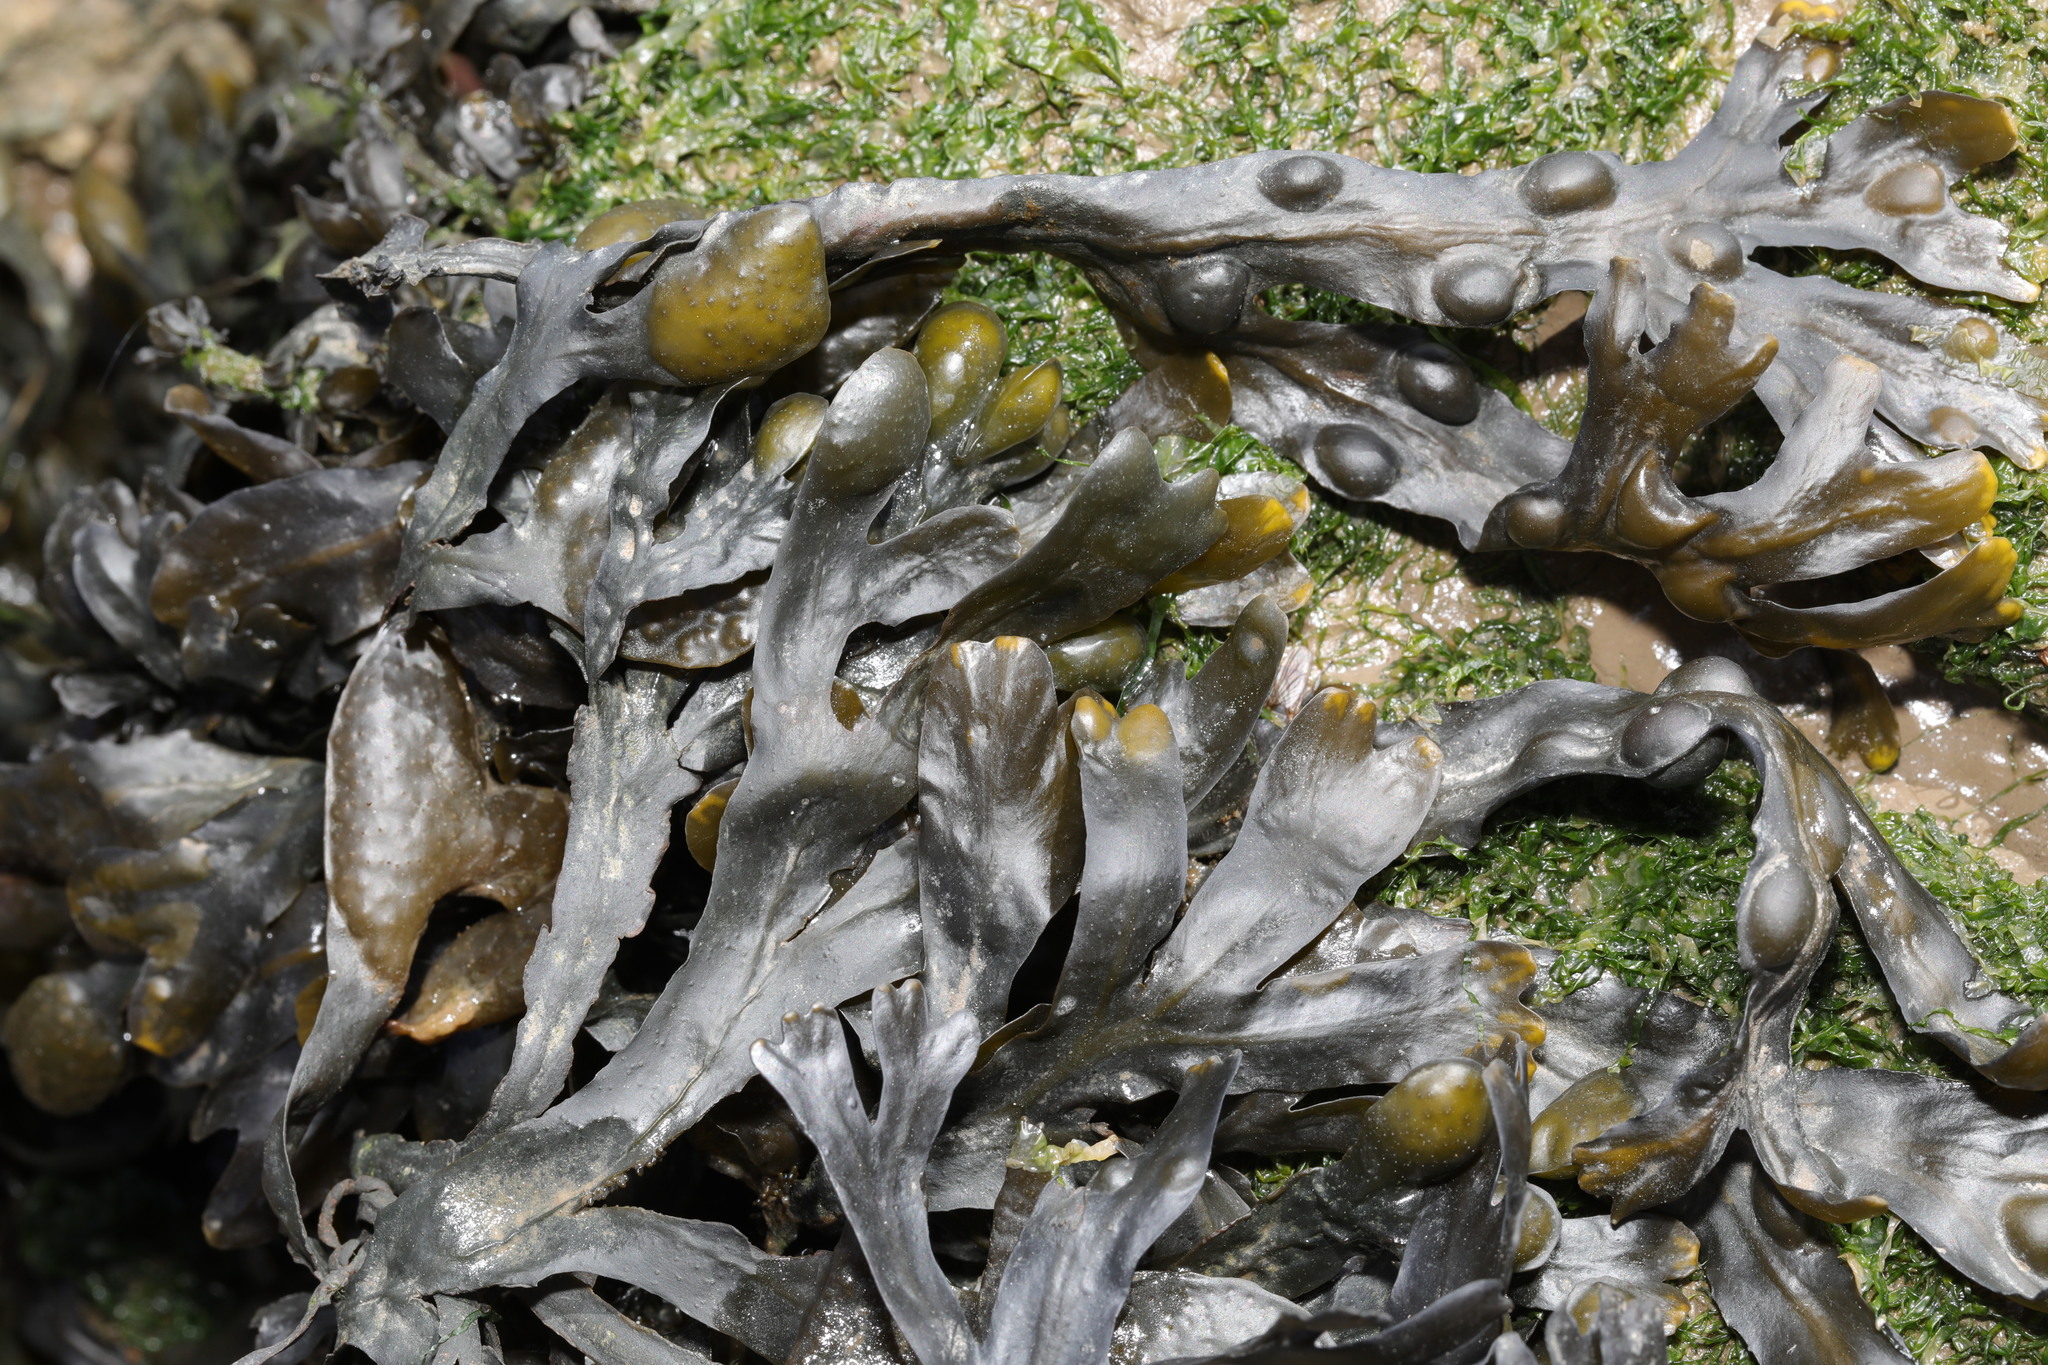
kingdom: Chromista
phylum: Ochrophyta
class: Phaeophyceae
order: Fucales
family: Fucaceae
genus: Fucus
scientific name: Fucus vesiculosus
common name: Bladder wrack
